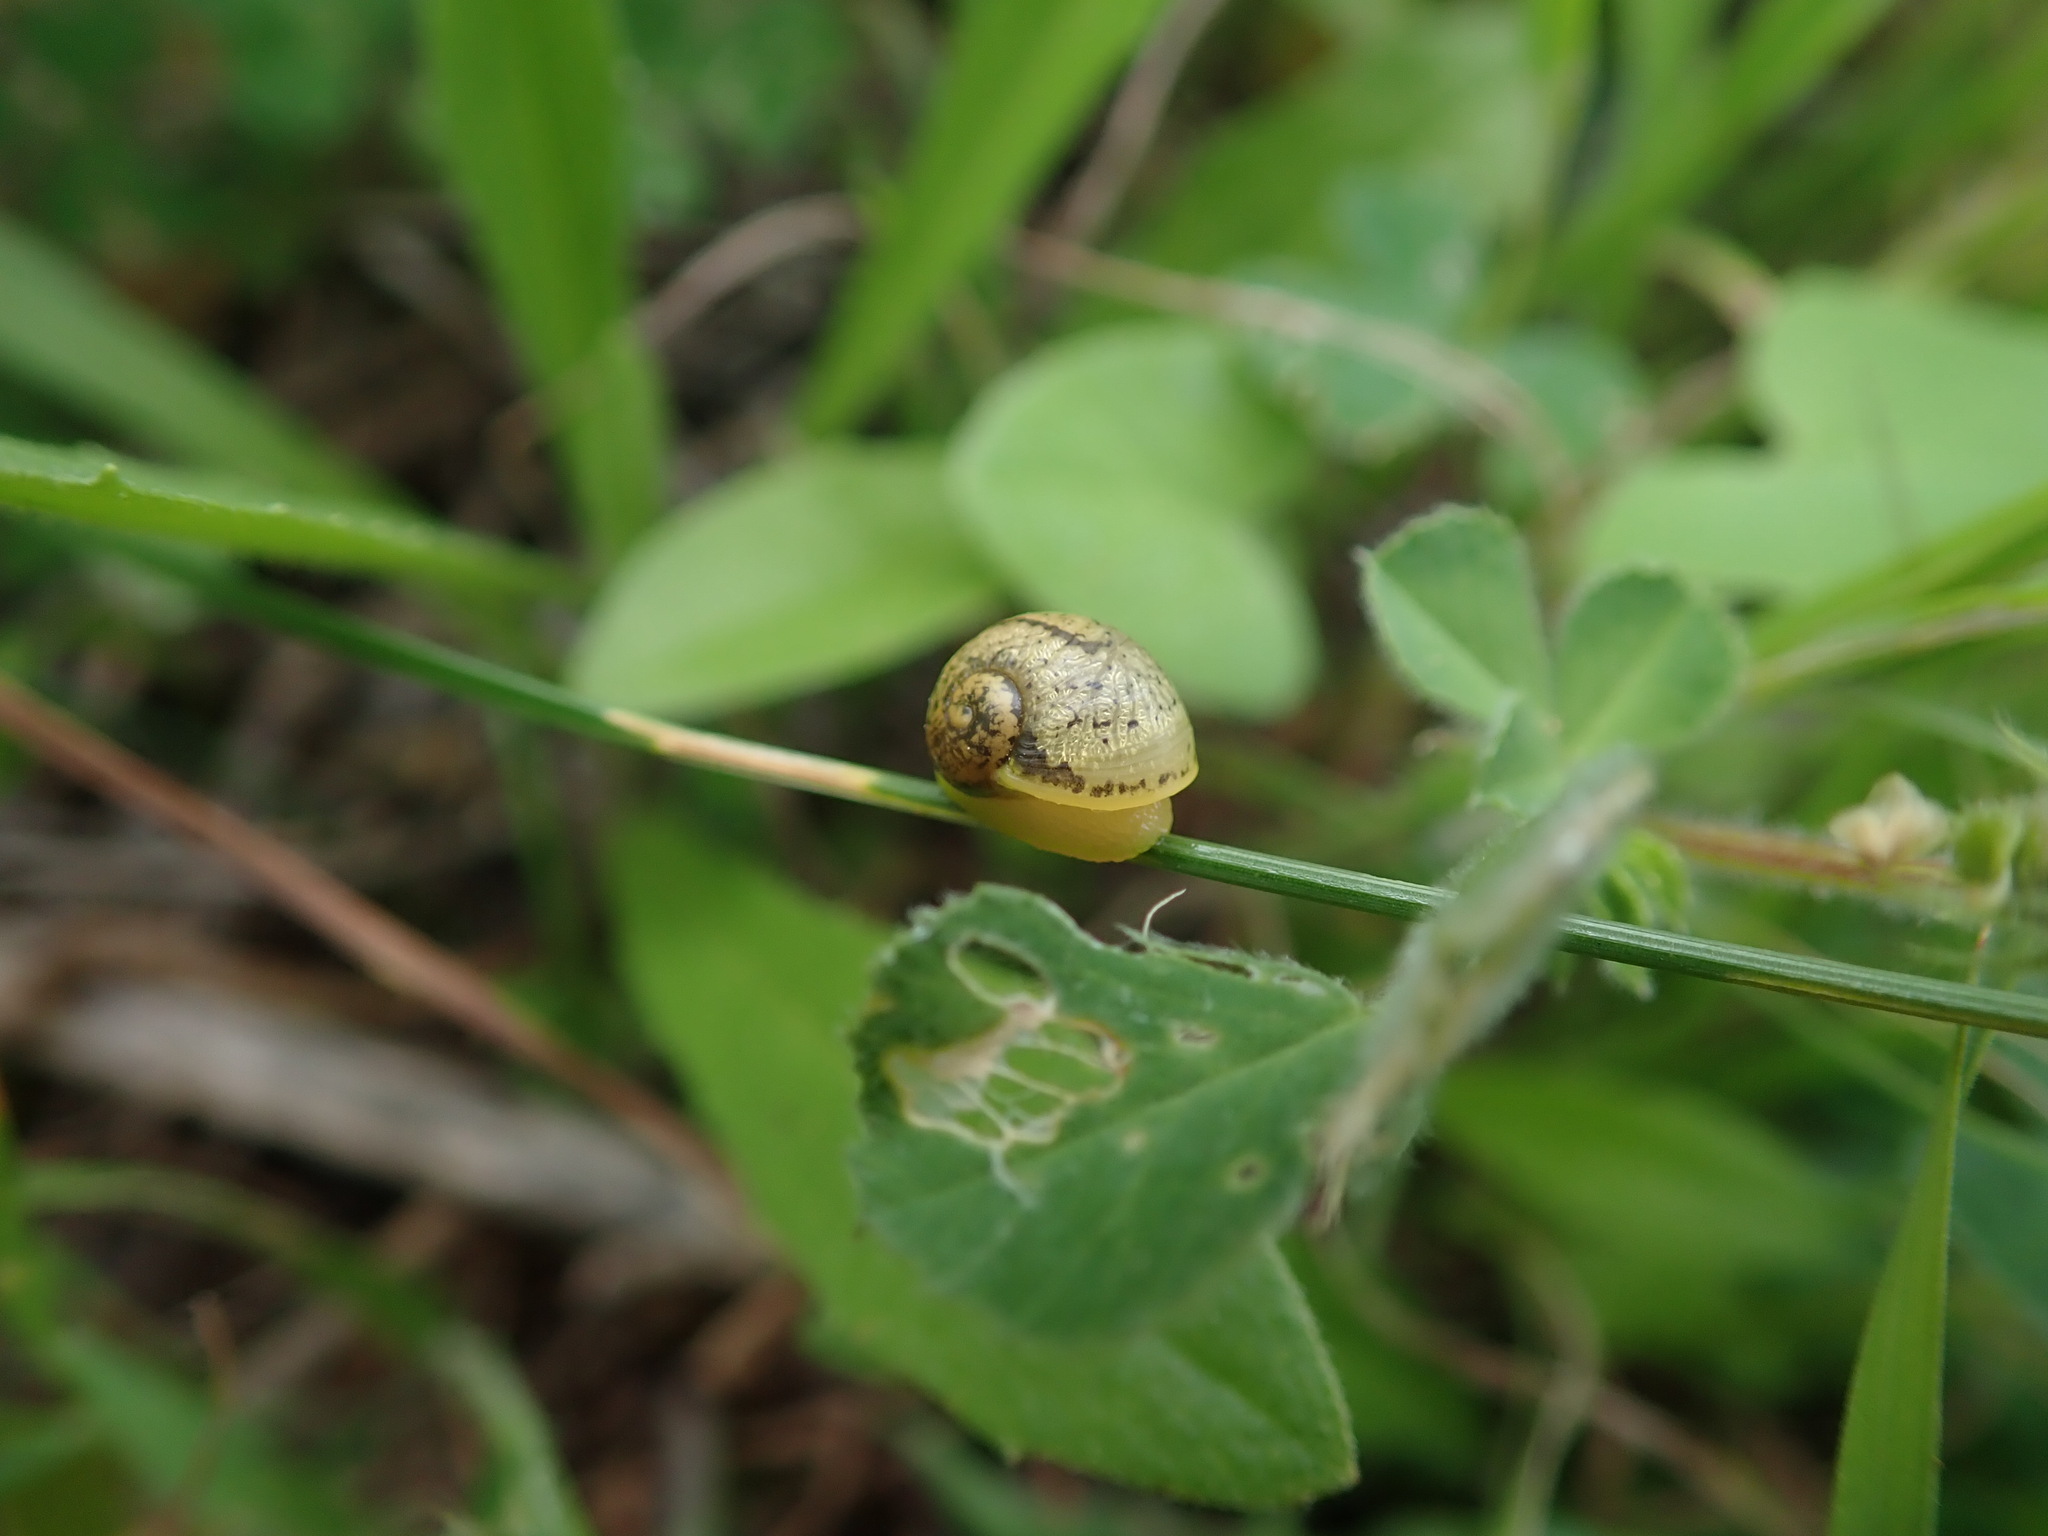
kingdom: Animalia
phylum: Mollusca
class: Gastropoda
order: Stylommatophora
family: Helicidae
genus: Cantareus
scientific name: Cantareus apertus
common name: Green gardensnail
